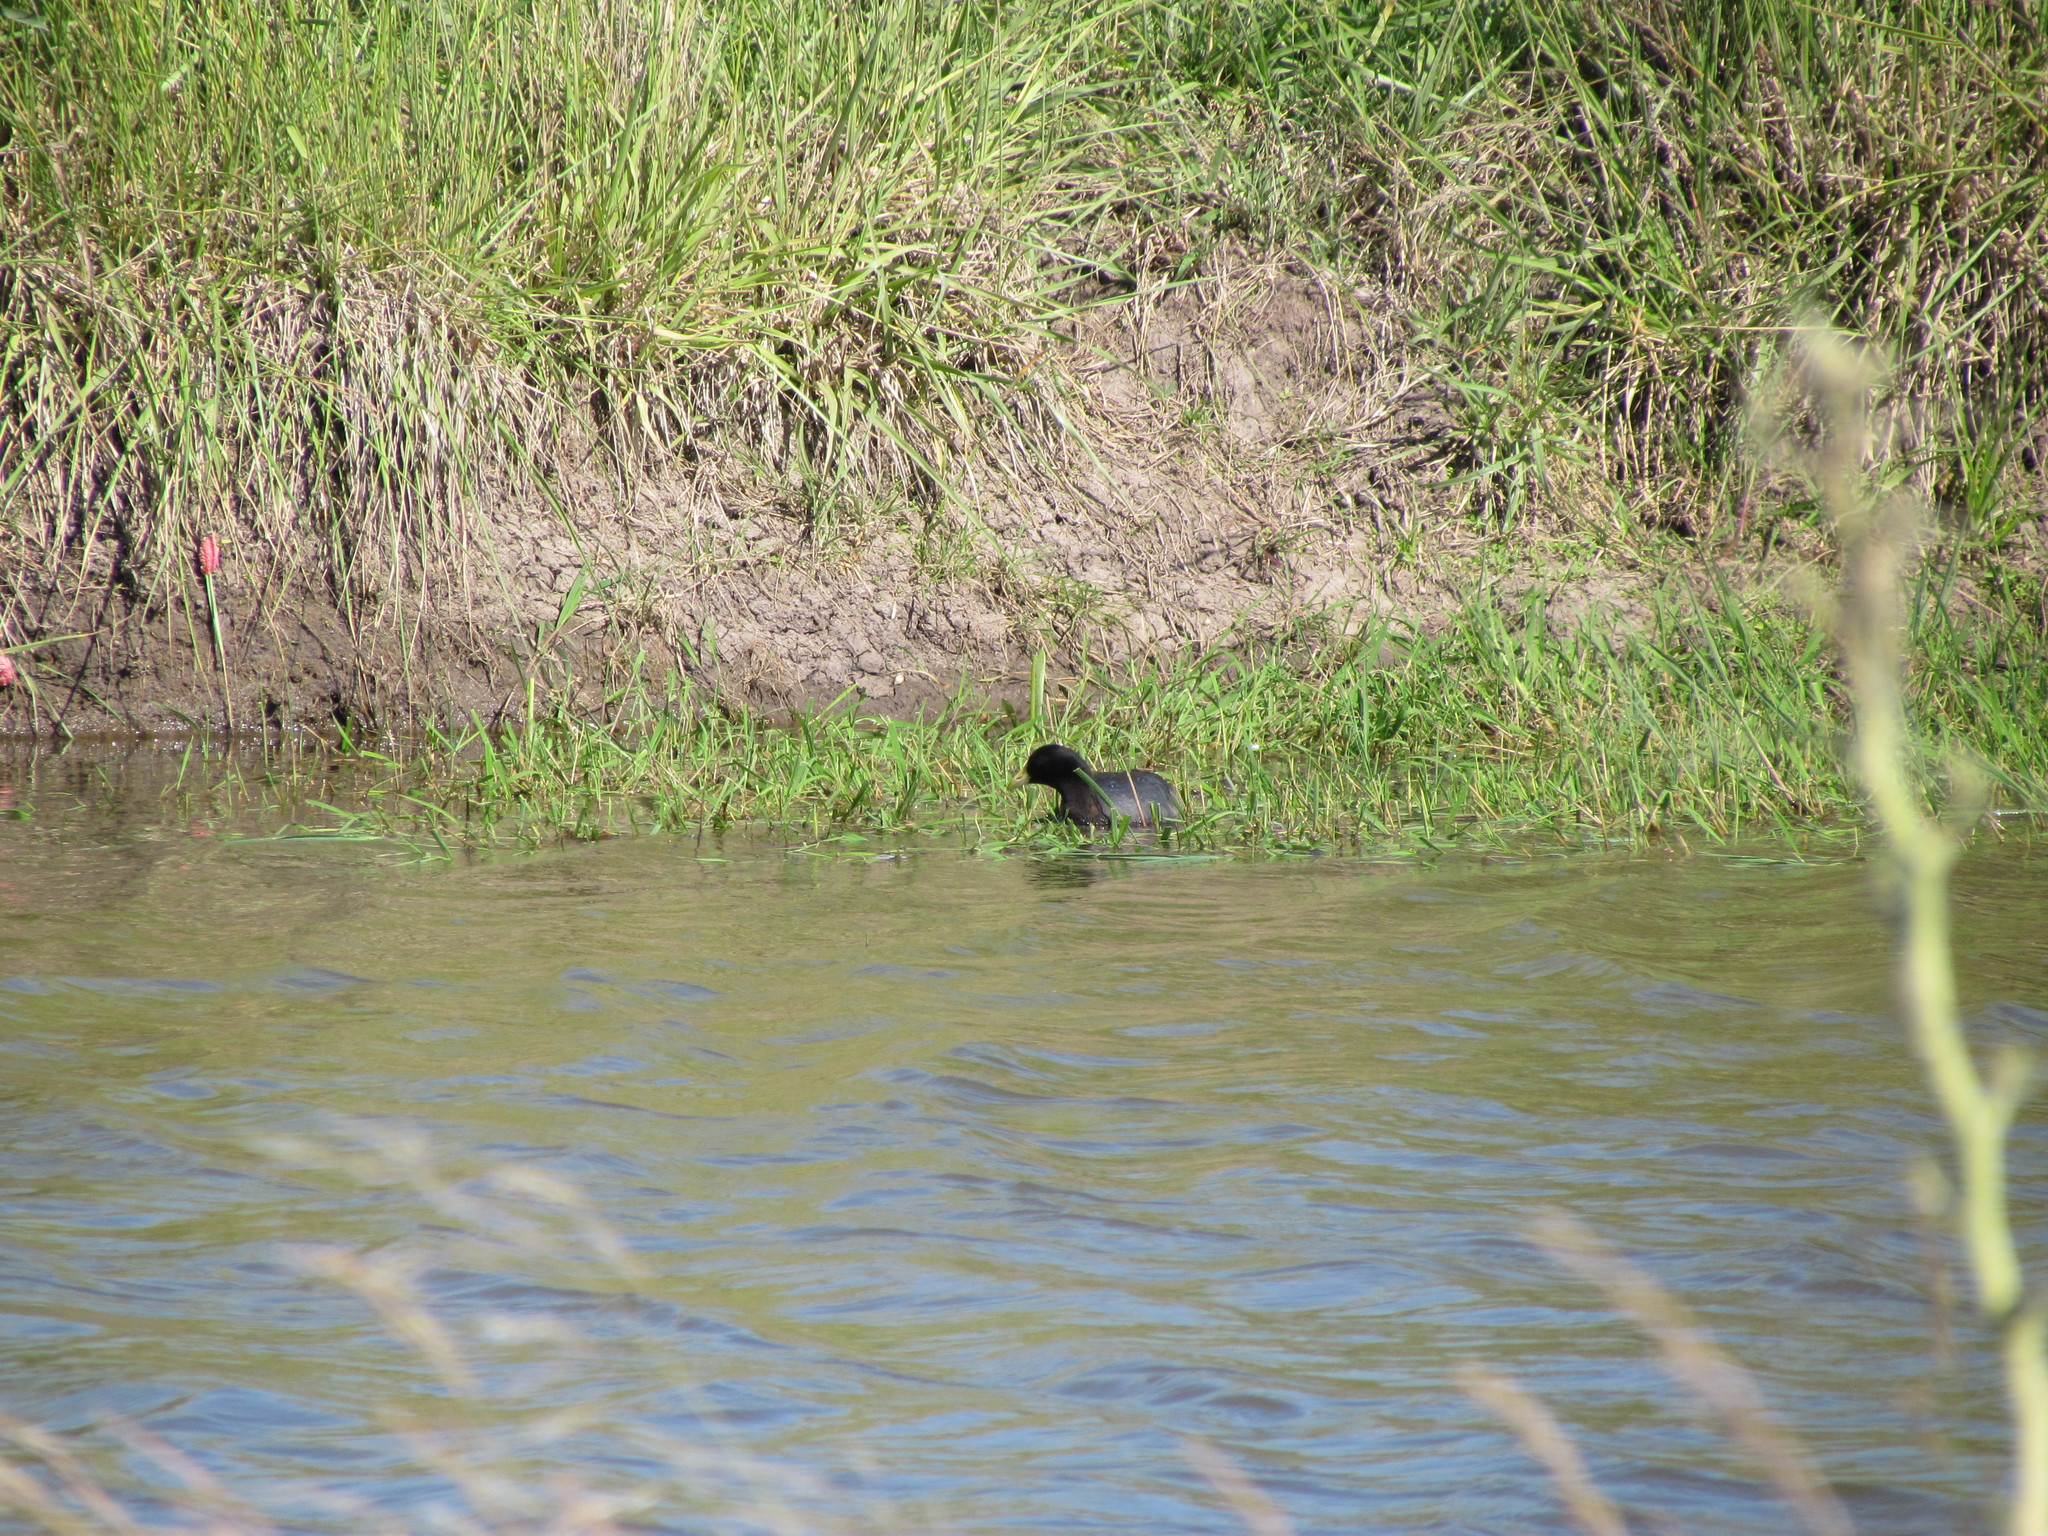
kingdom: Animalia
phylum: Chordata
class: Aves
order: Gruiformes
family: Rallidae
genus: Fulica
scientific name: Fulica leucoptera
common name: White-winged coot
